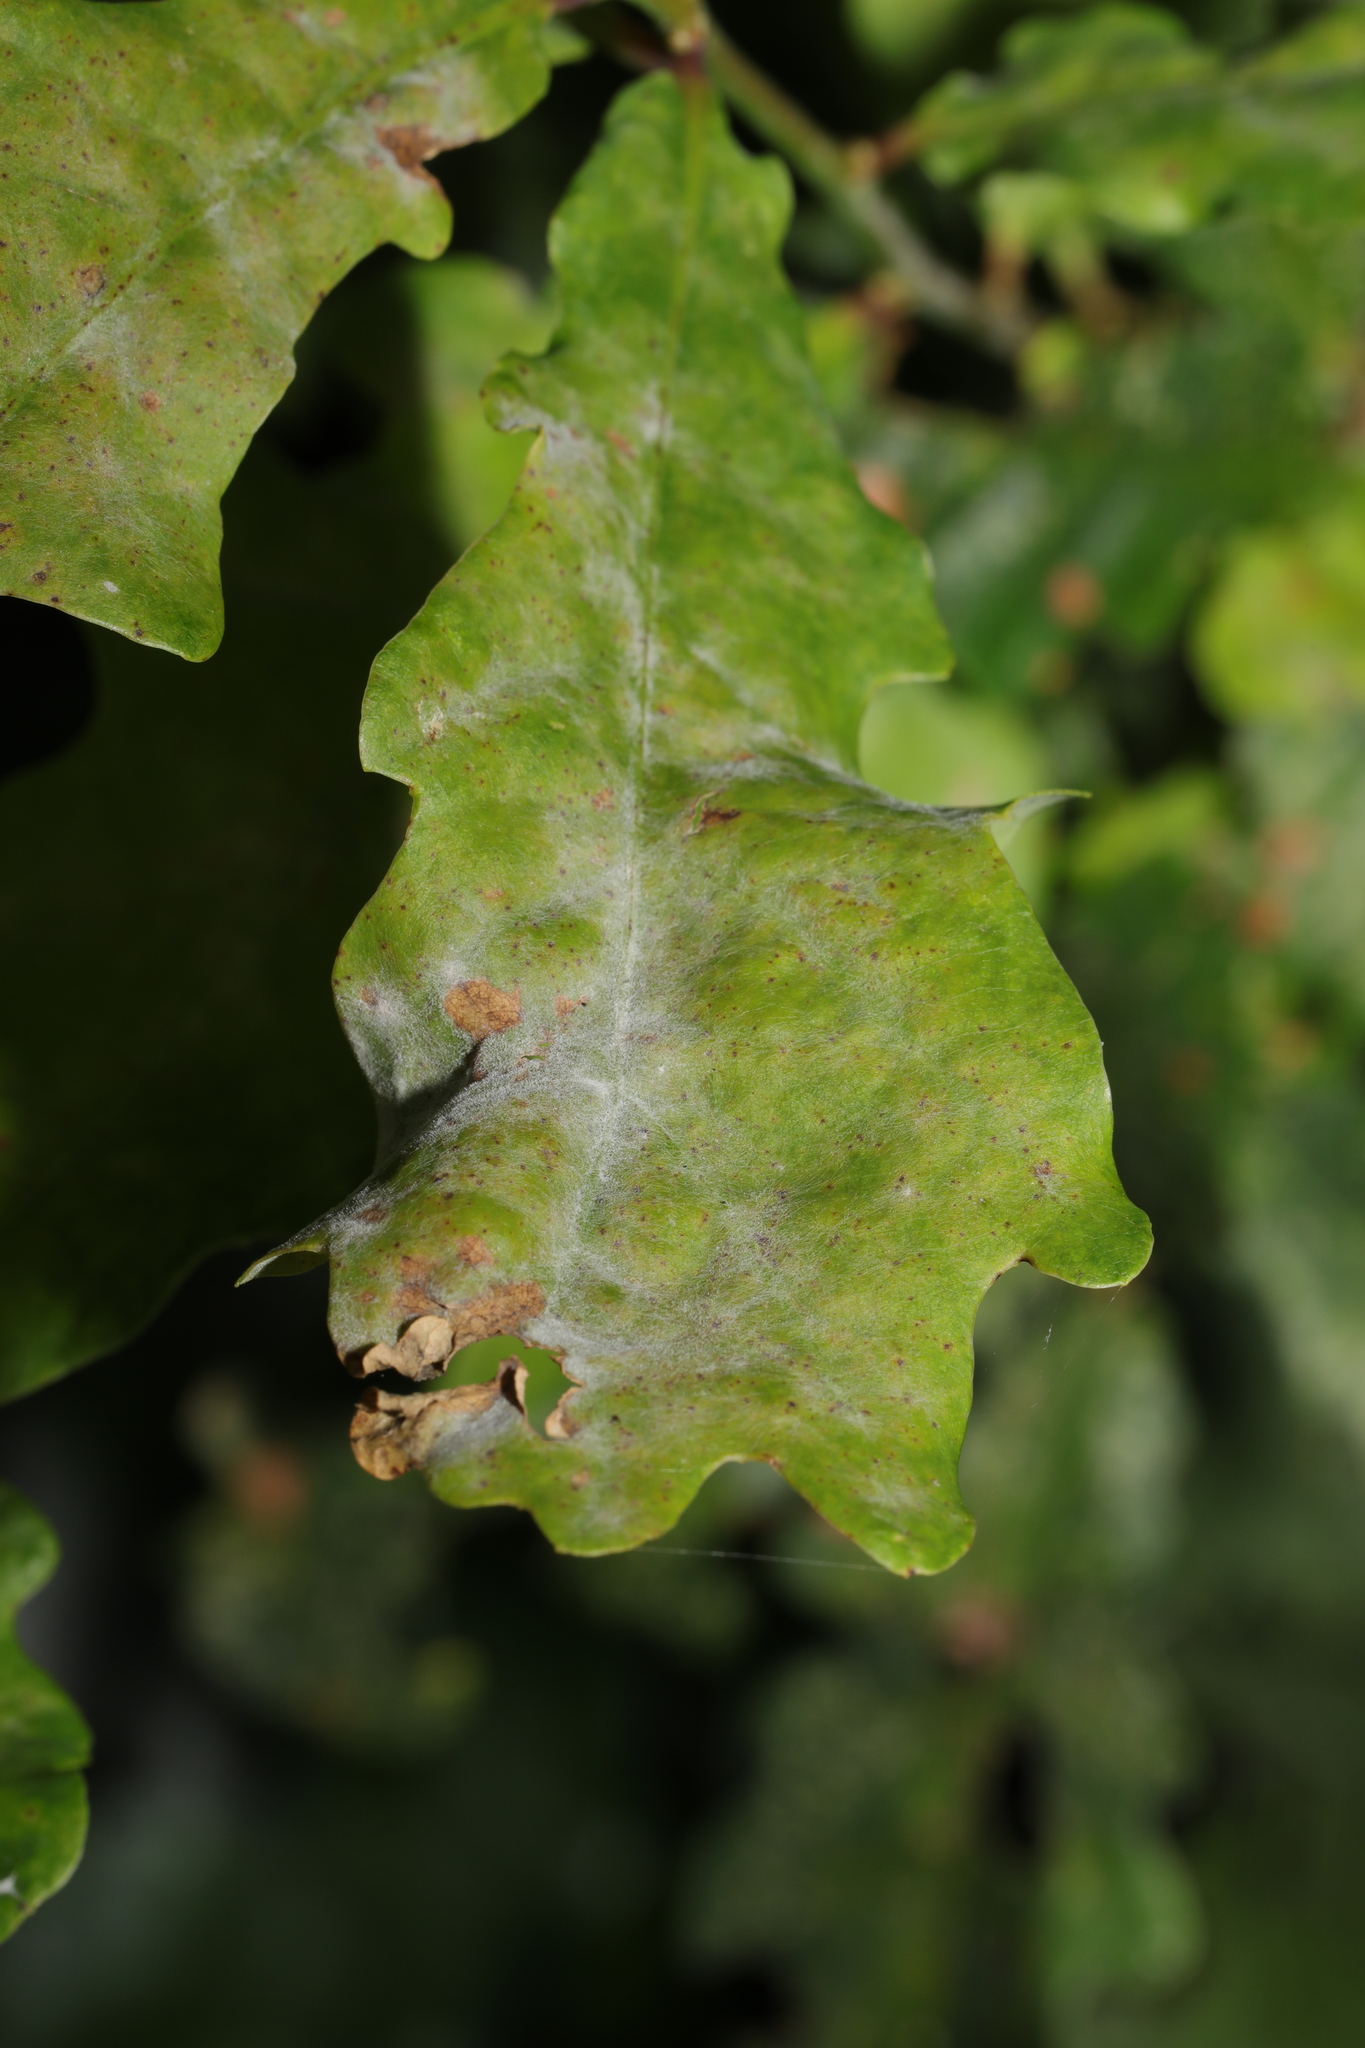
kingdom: Fungi
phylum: Ascomycota
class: Leotiomycetes
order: Helotiales
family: Erysiphaceae
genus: Erysiphe
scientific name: Erysiphe alphitoides
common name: Oak mildew
